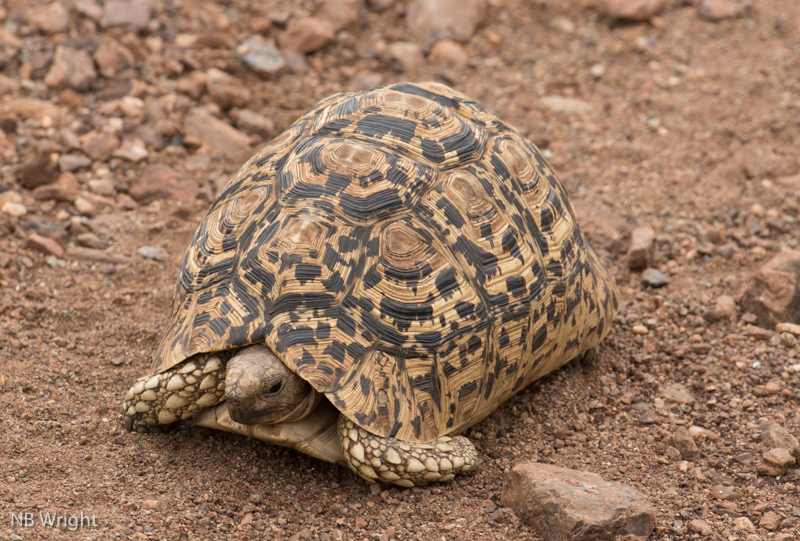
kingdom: Animalia
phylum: Chordata
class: Testudines
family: Testudinidae
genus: Stigmochelys
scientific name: Stigmochelys pardalis
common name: Leopard tortoise
